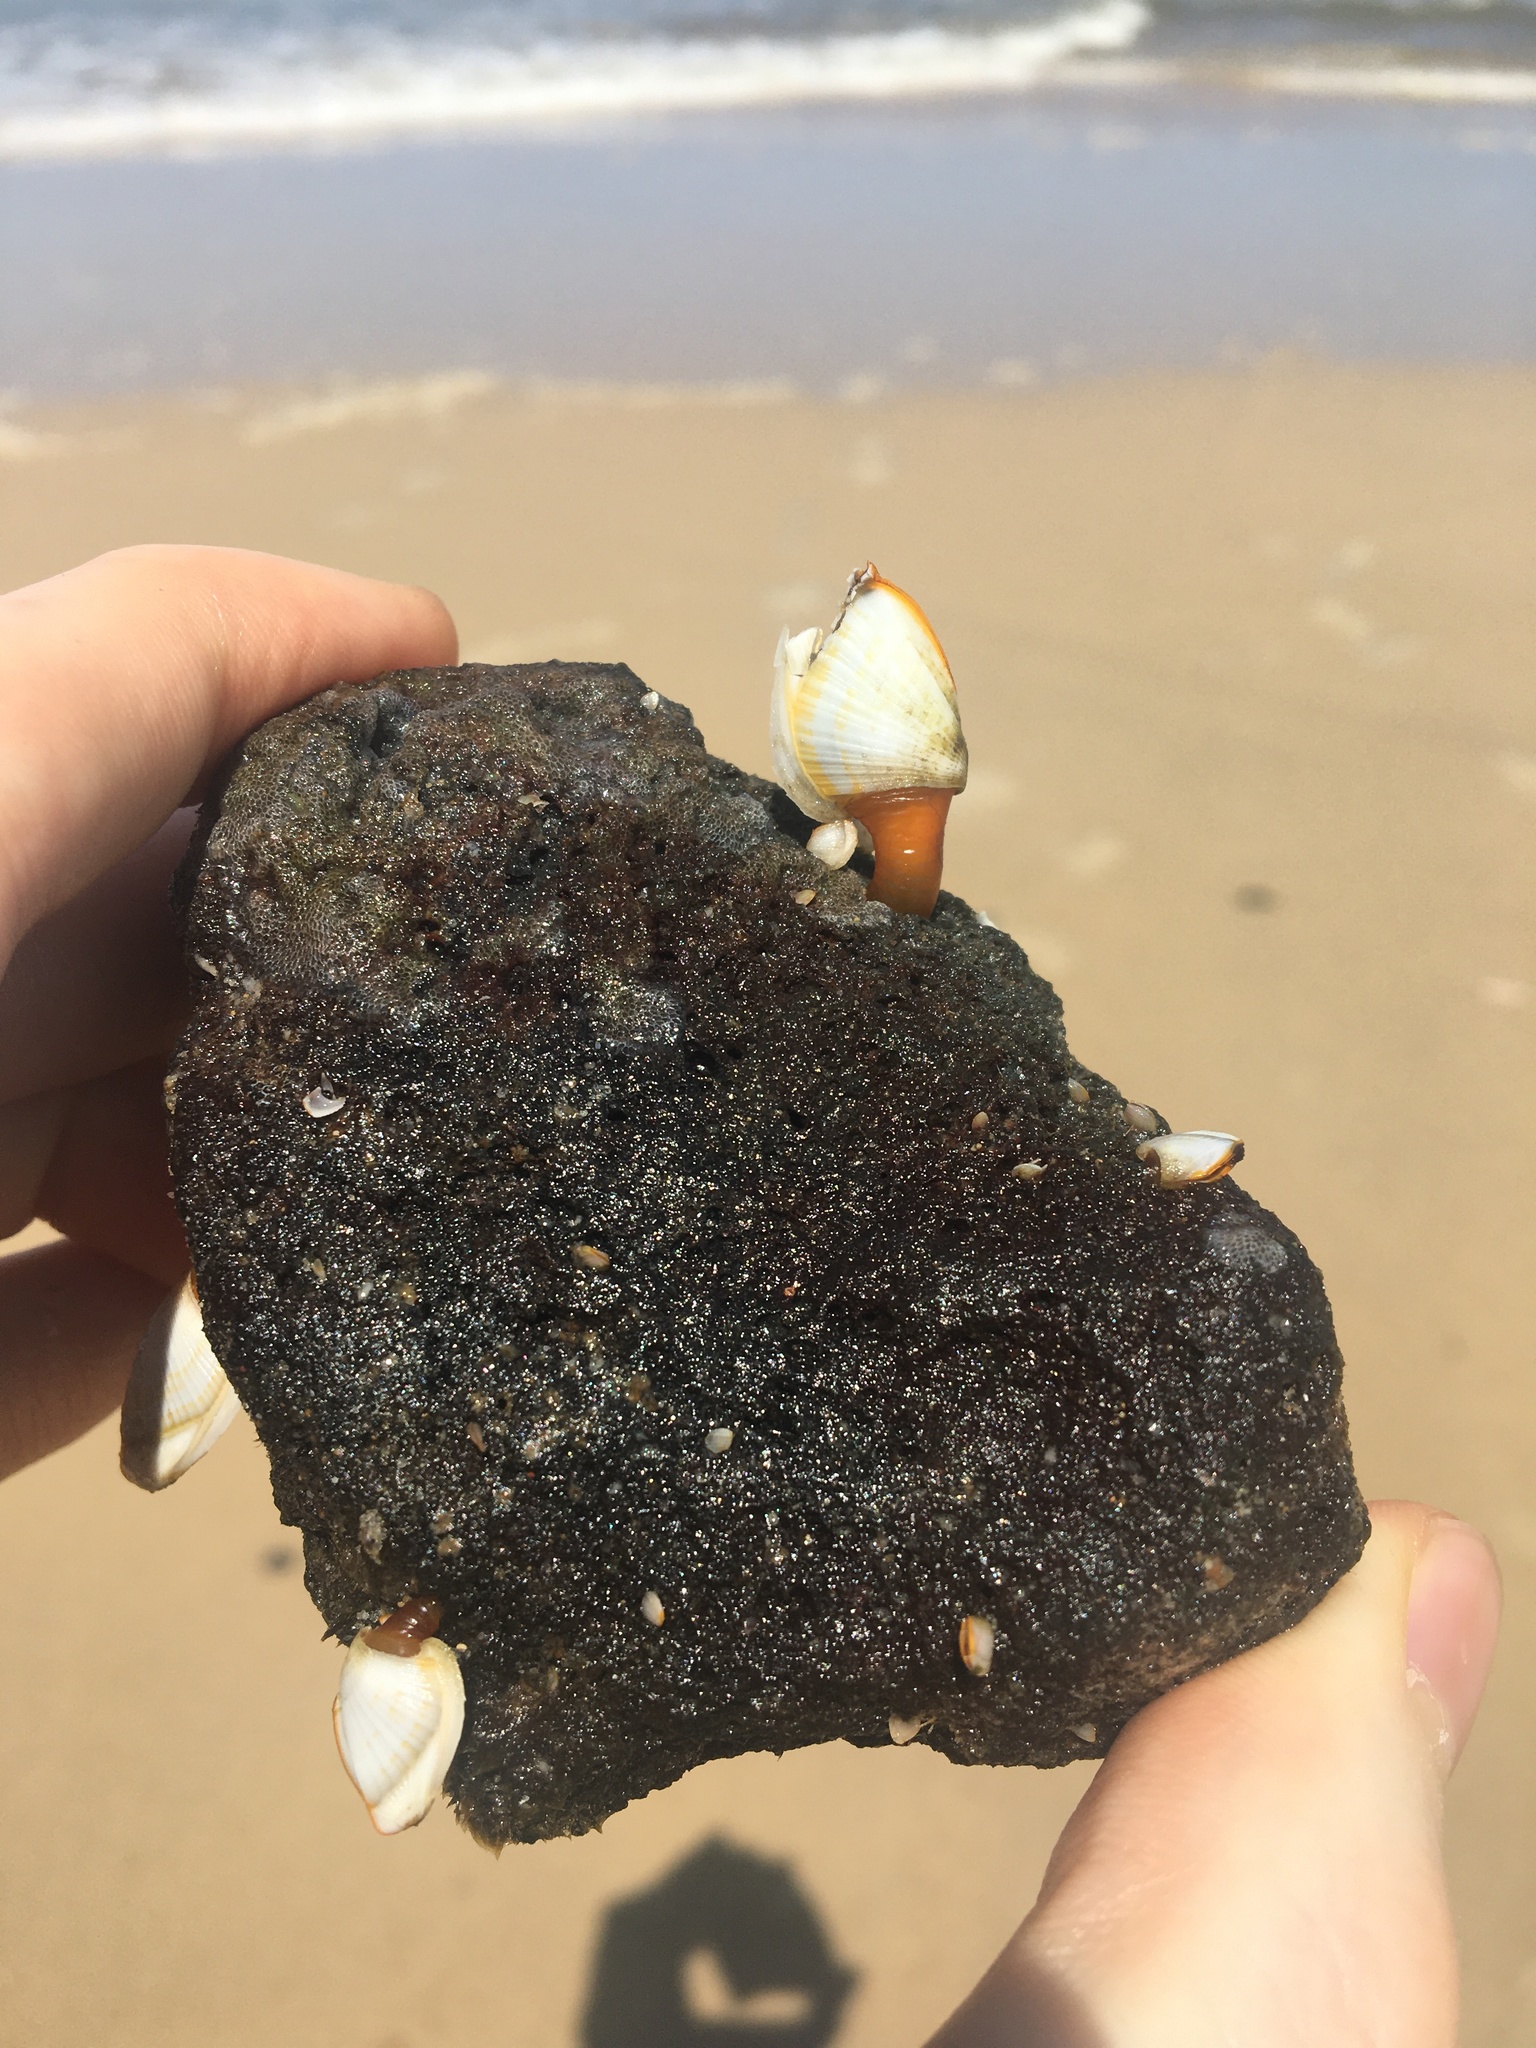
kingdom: Animalia
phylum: Arthropoda
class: Maxillopoda
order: Pedunculata
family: Lepadidae
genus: Lepas
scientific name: Lepas anserifera
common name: Goose barnacle
